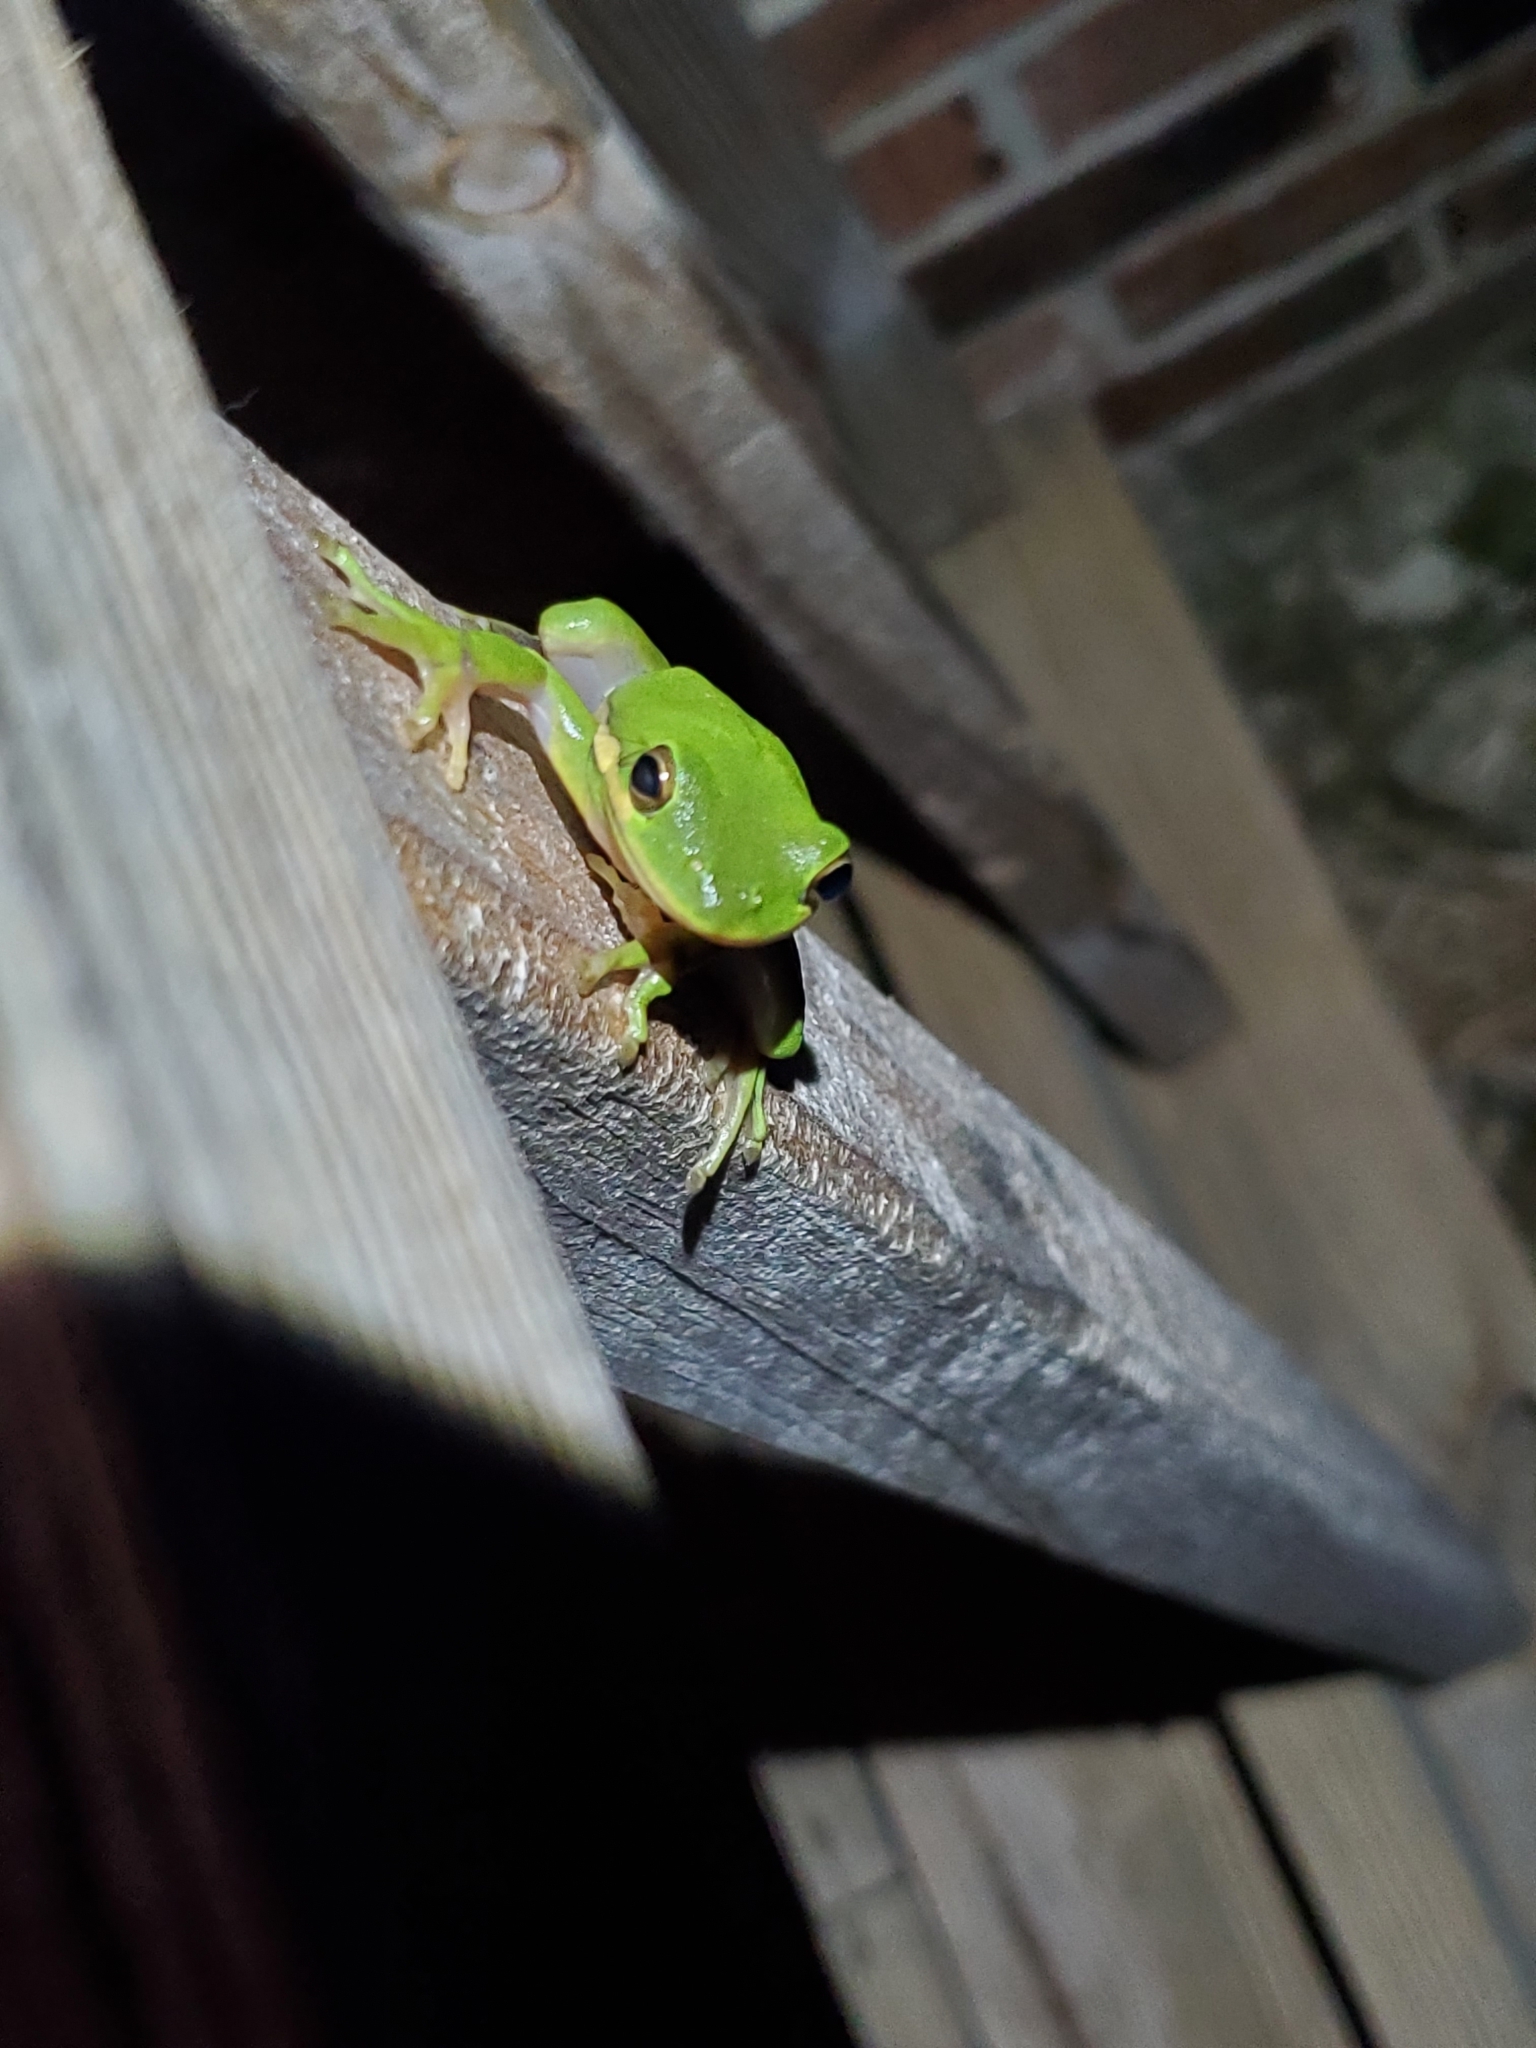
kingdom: Animalia
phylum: Chordata
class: Amphibia
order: Anura
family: Hylidae
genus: Dryophytes
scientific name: Dryophytes cinereus
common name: Green treefrog
